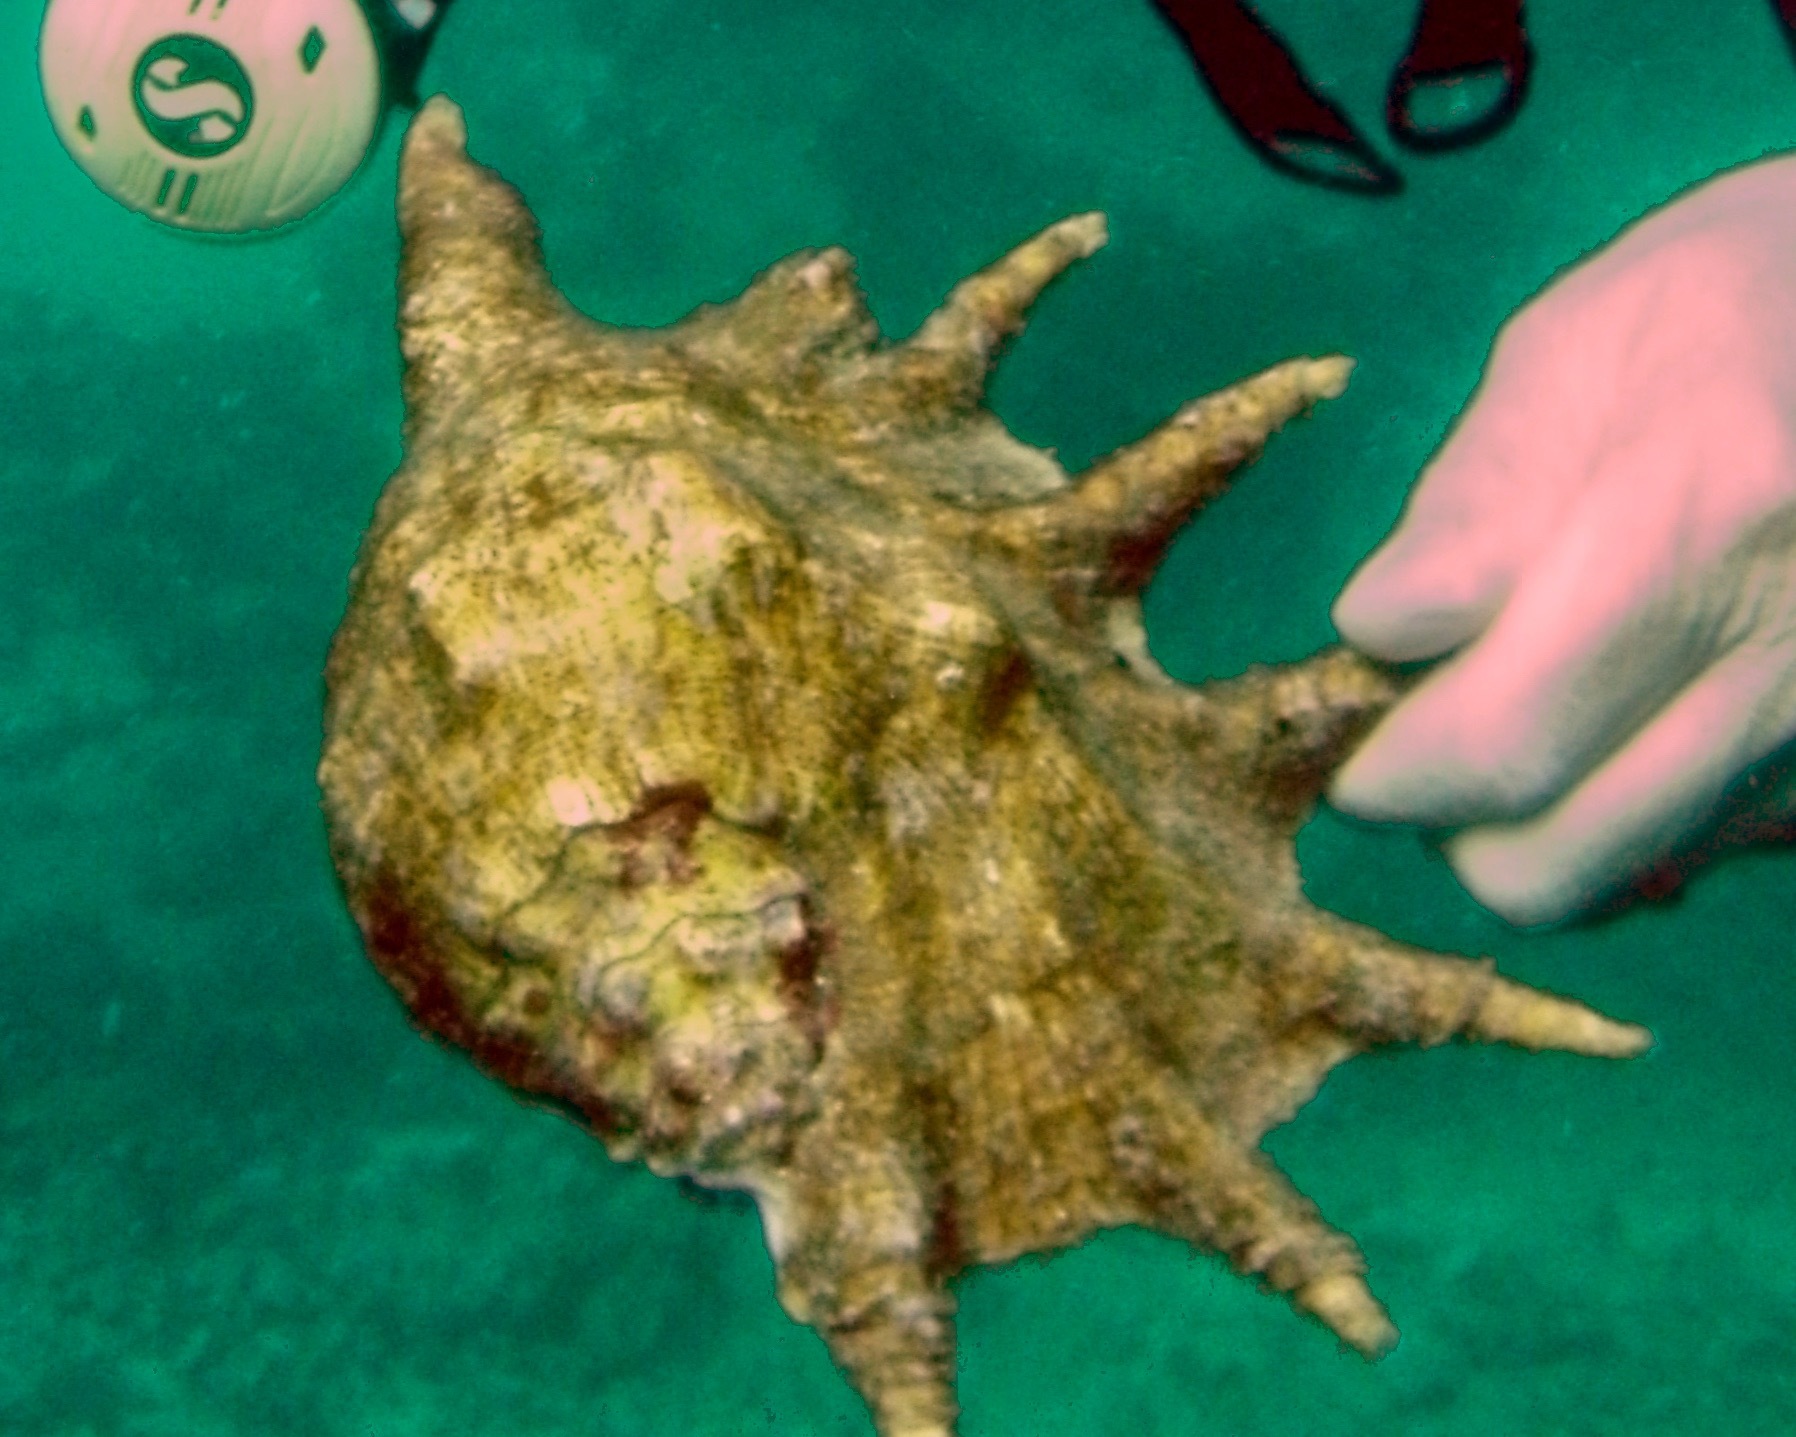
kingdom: Animalia
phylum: Mollusca
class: Gastropoda
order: Littorinimorpha
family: Strombidae
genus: Lambis
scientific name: Lambis truncata
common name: Giant spider conch
